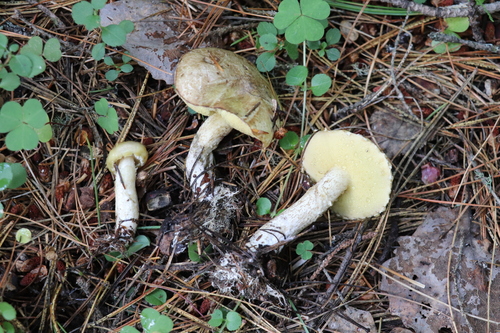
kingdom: Fungi
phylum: Basidiomycota
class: Agaricomycetes
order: Boletales
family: Suillaceae
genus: Suillus
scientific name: Suillus placidus
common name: Slippery white bolete
